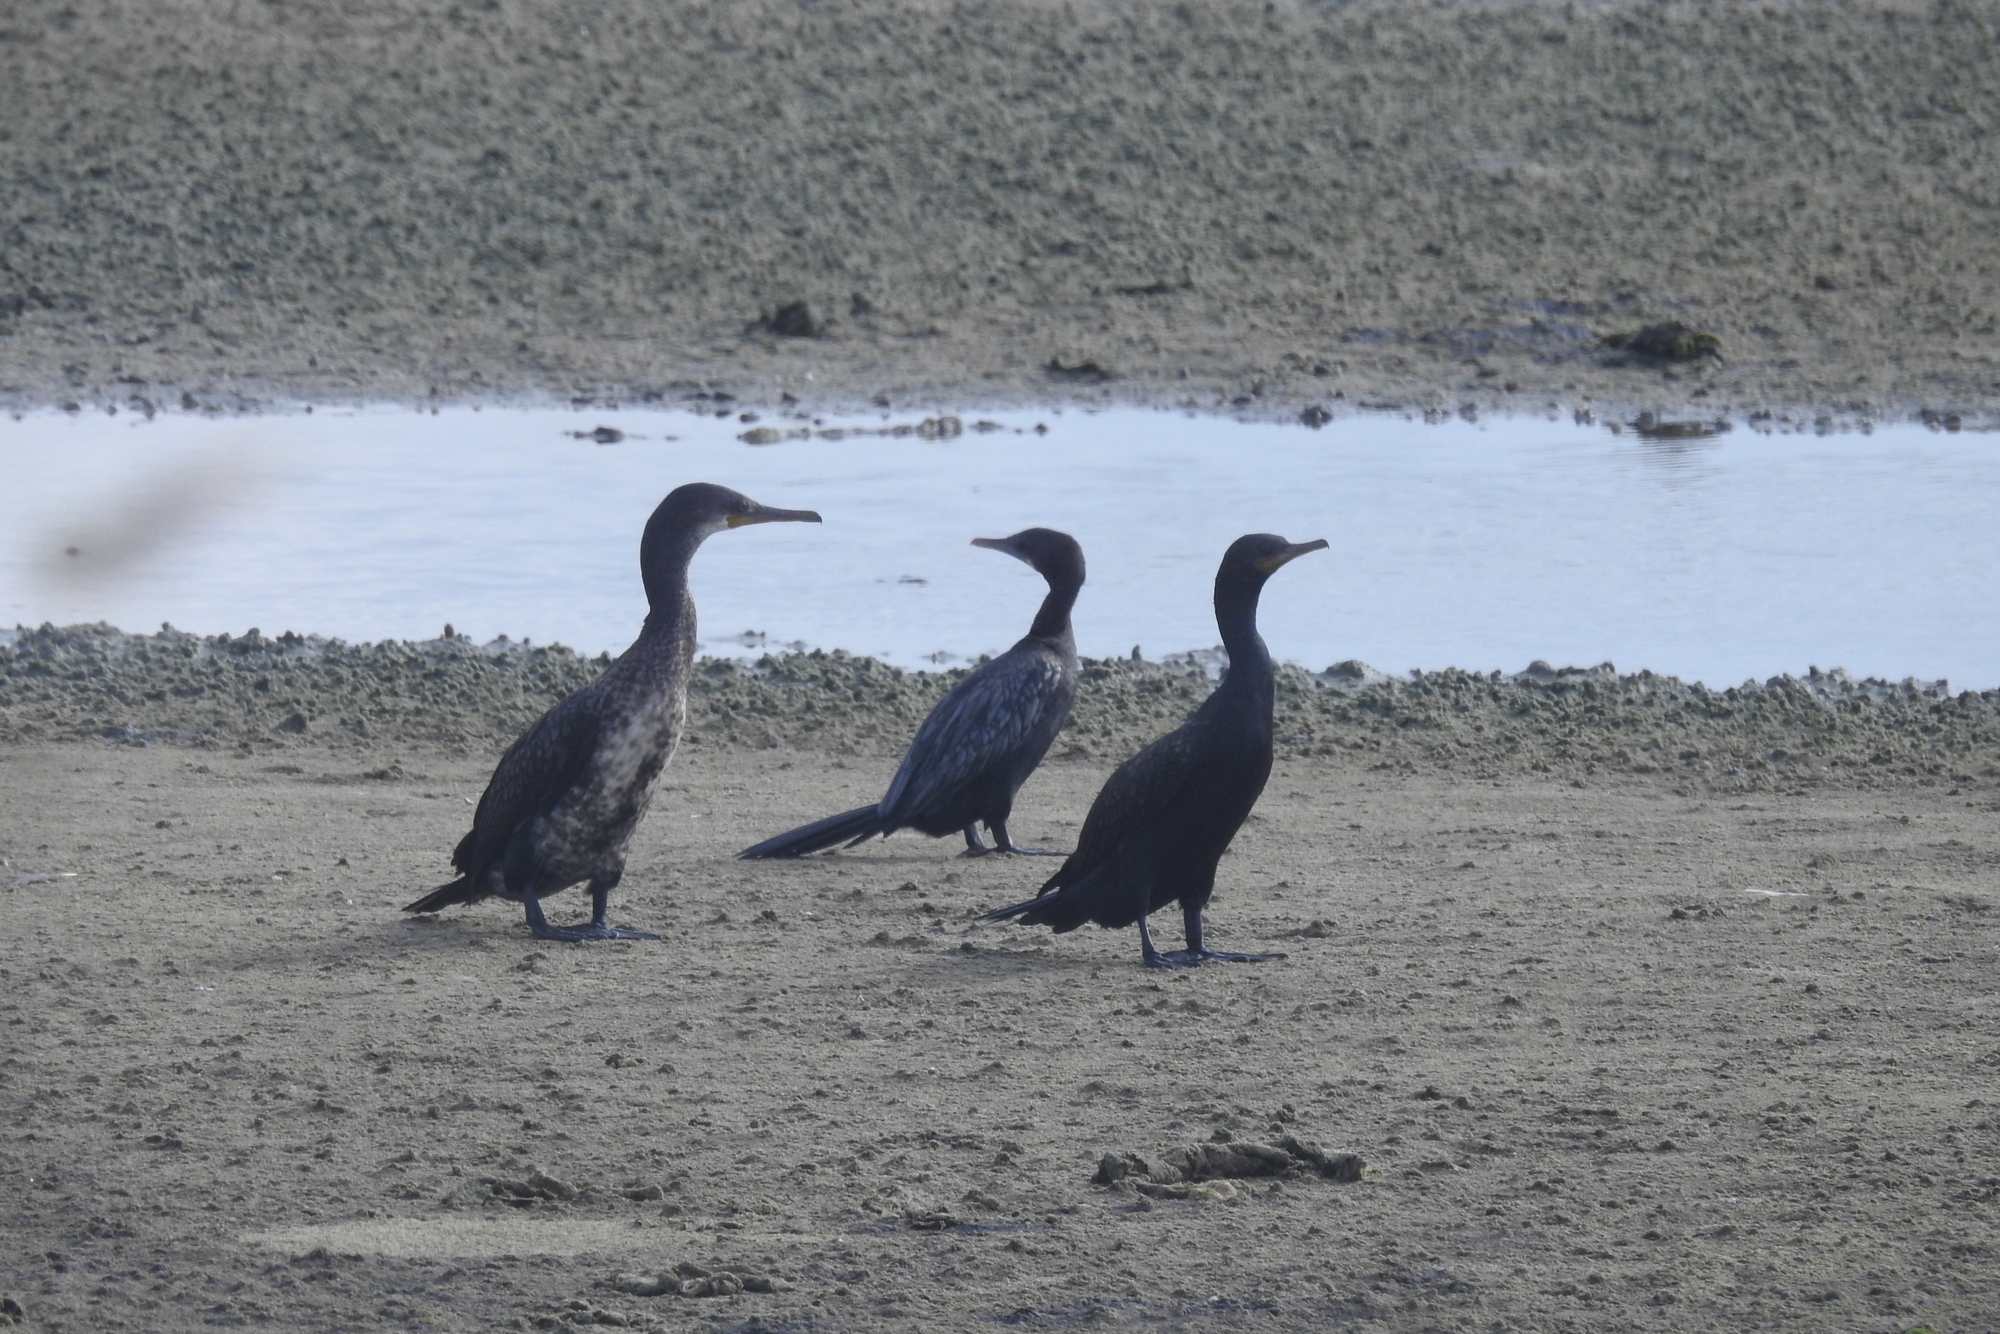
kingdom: Animalia
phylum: Chordata
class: Aves
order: Suliformes
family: Phalacrocoracidae
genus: Phalacrocorax
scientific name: Phalacrocorax fuscicollis
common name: Indian cormorant
